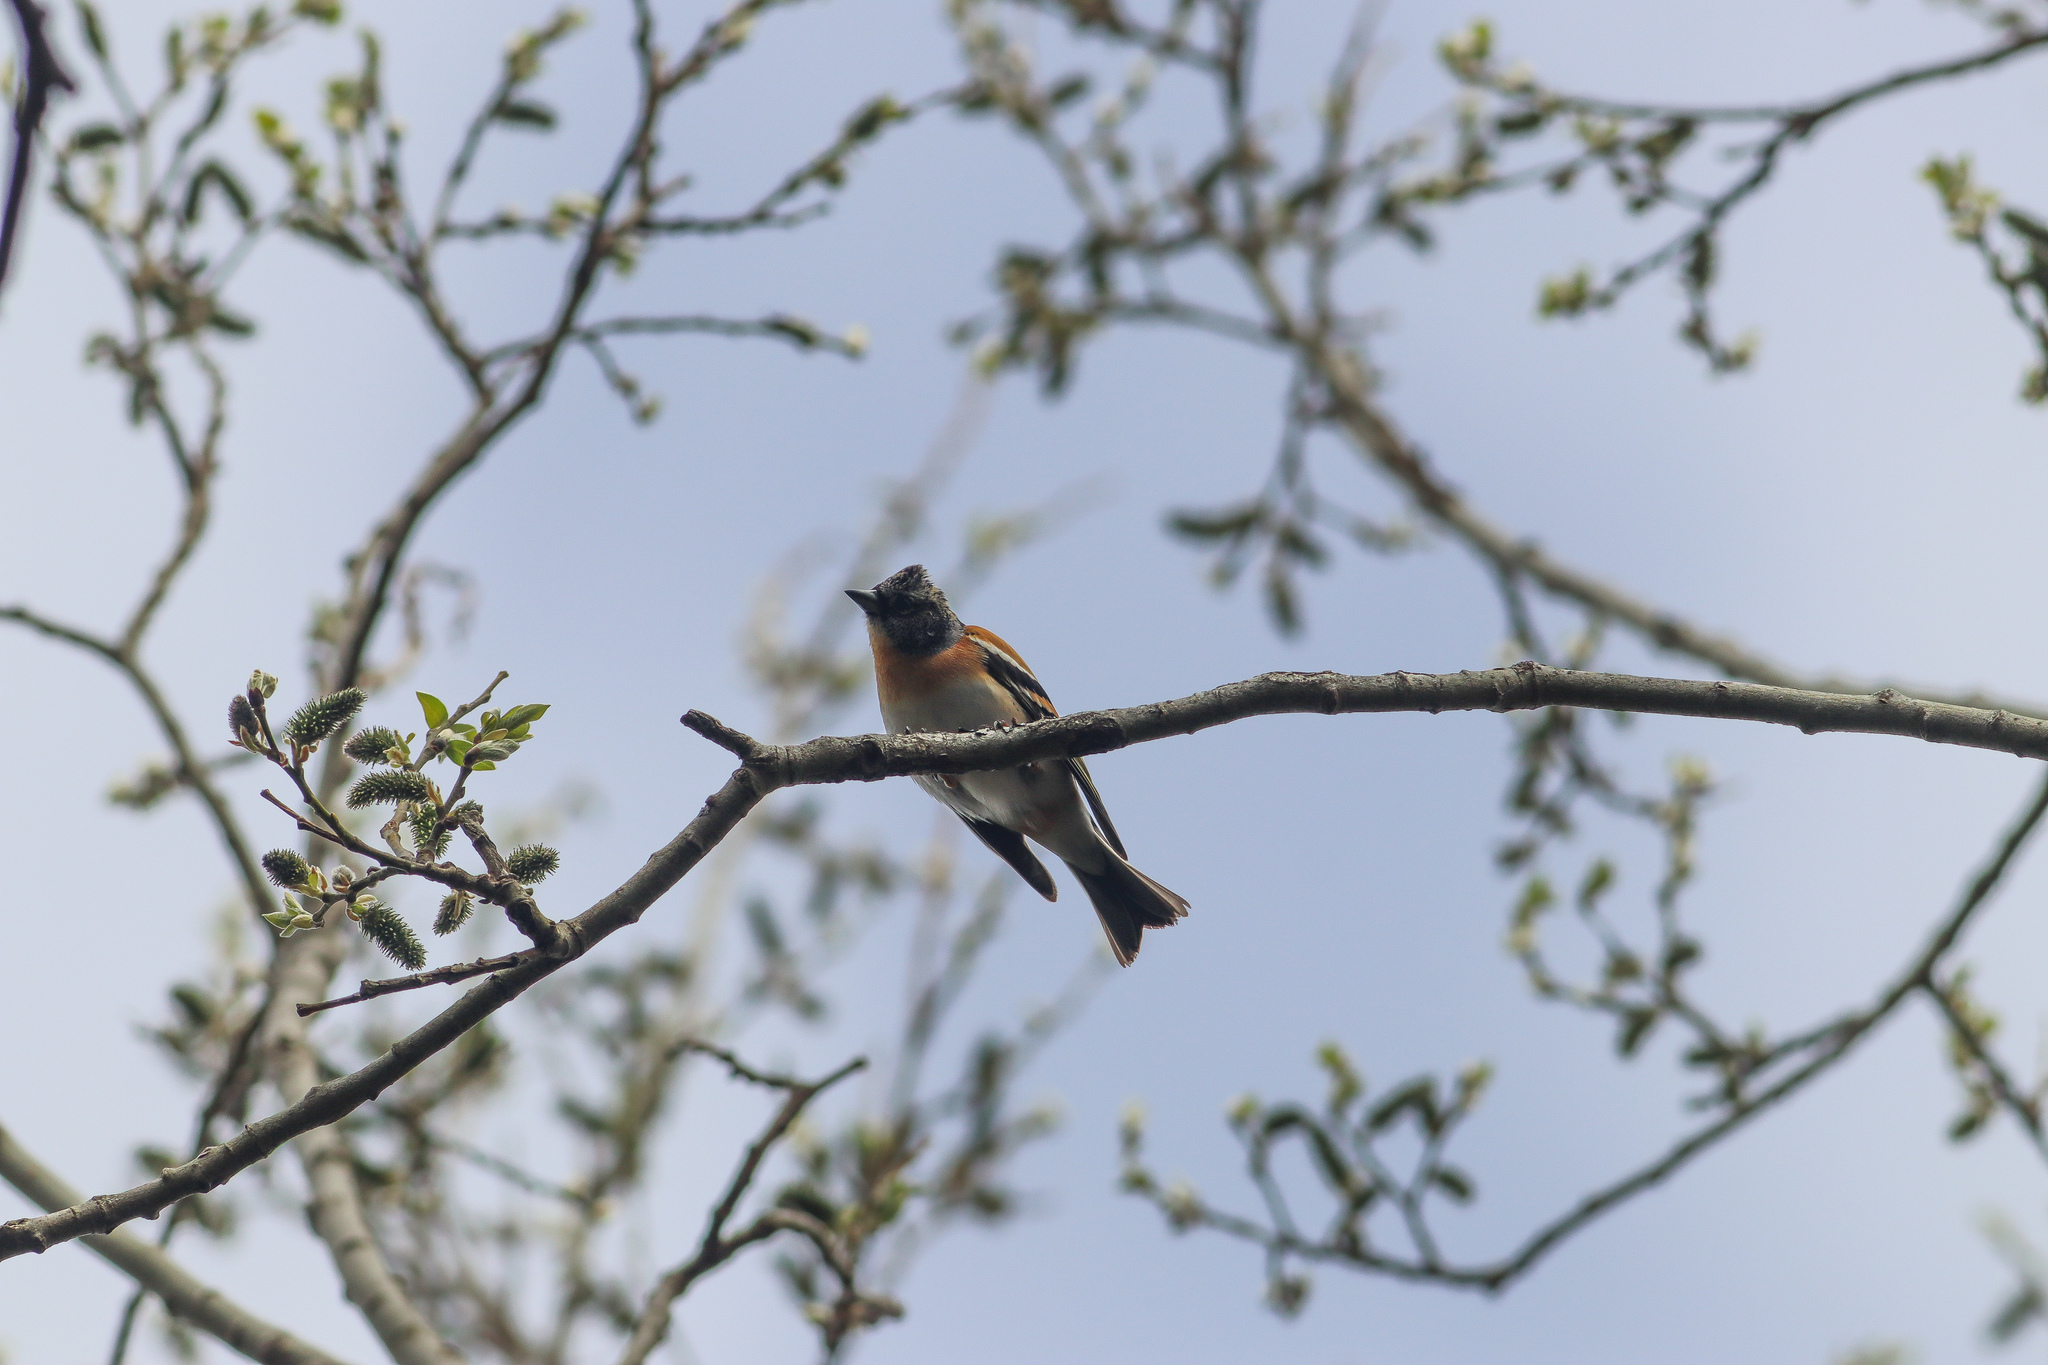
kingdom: Animalia
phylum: Chordata
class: Aves
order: Passeriformes
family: Fringillidae
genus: Fringilla
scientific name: Fringilla montifringilla
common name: Brambling
